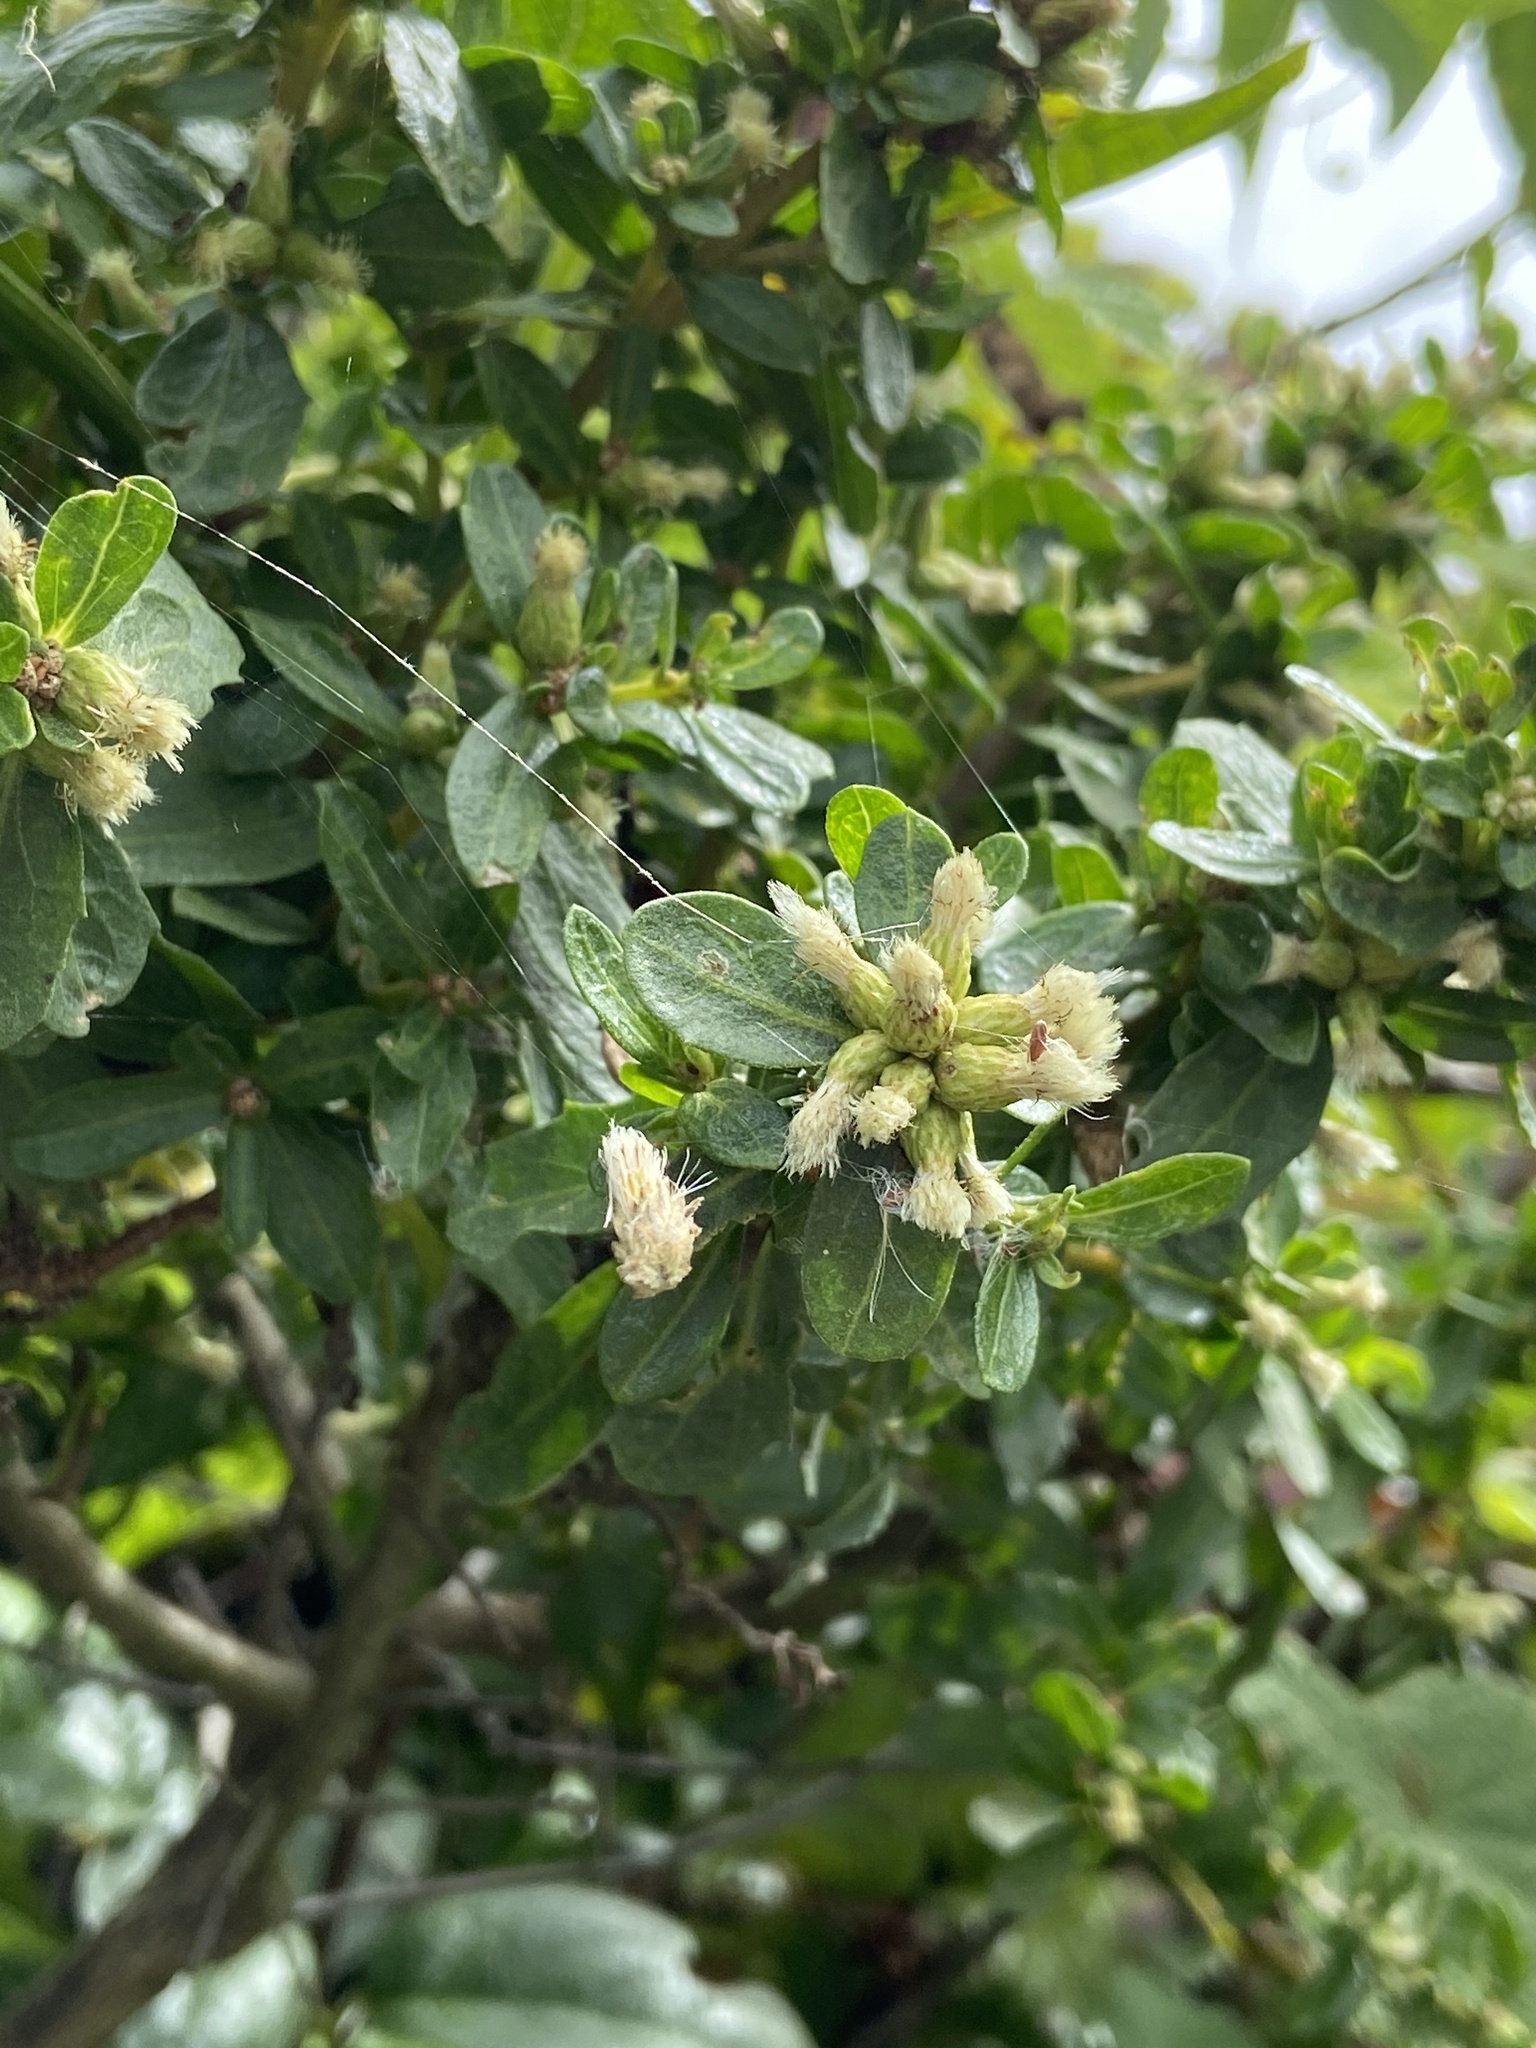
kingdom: Plantae
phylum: Tracheophyta
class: Magnoliopsida
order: Asterales
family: Asteraceae
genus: Baccharis
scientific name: Baccharis pilularis
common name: Coyotebrush
